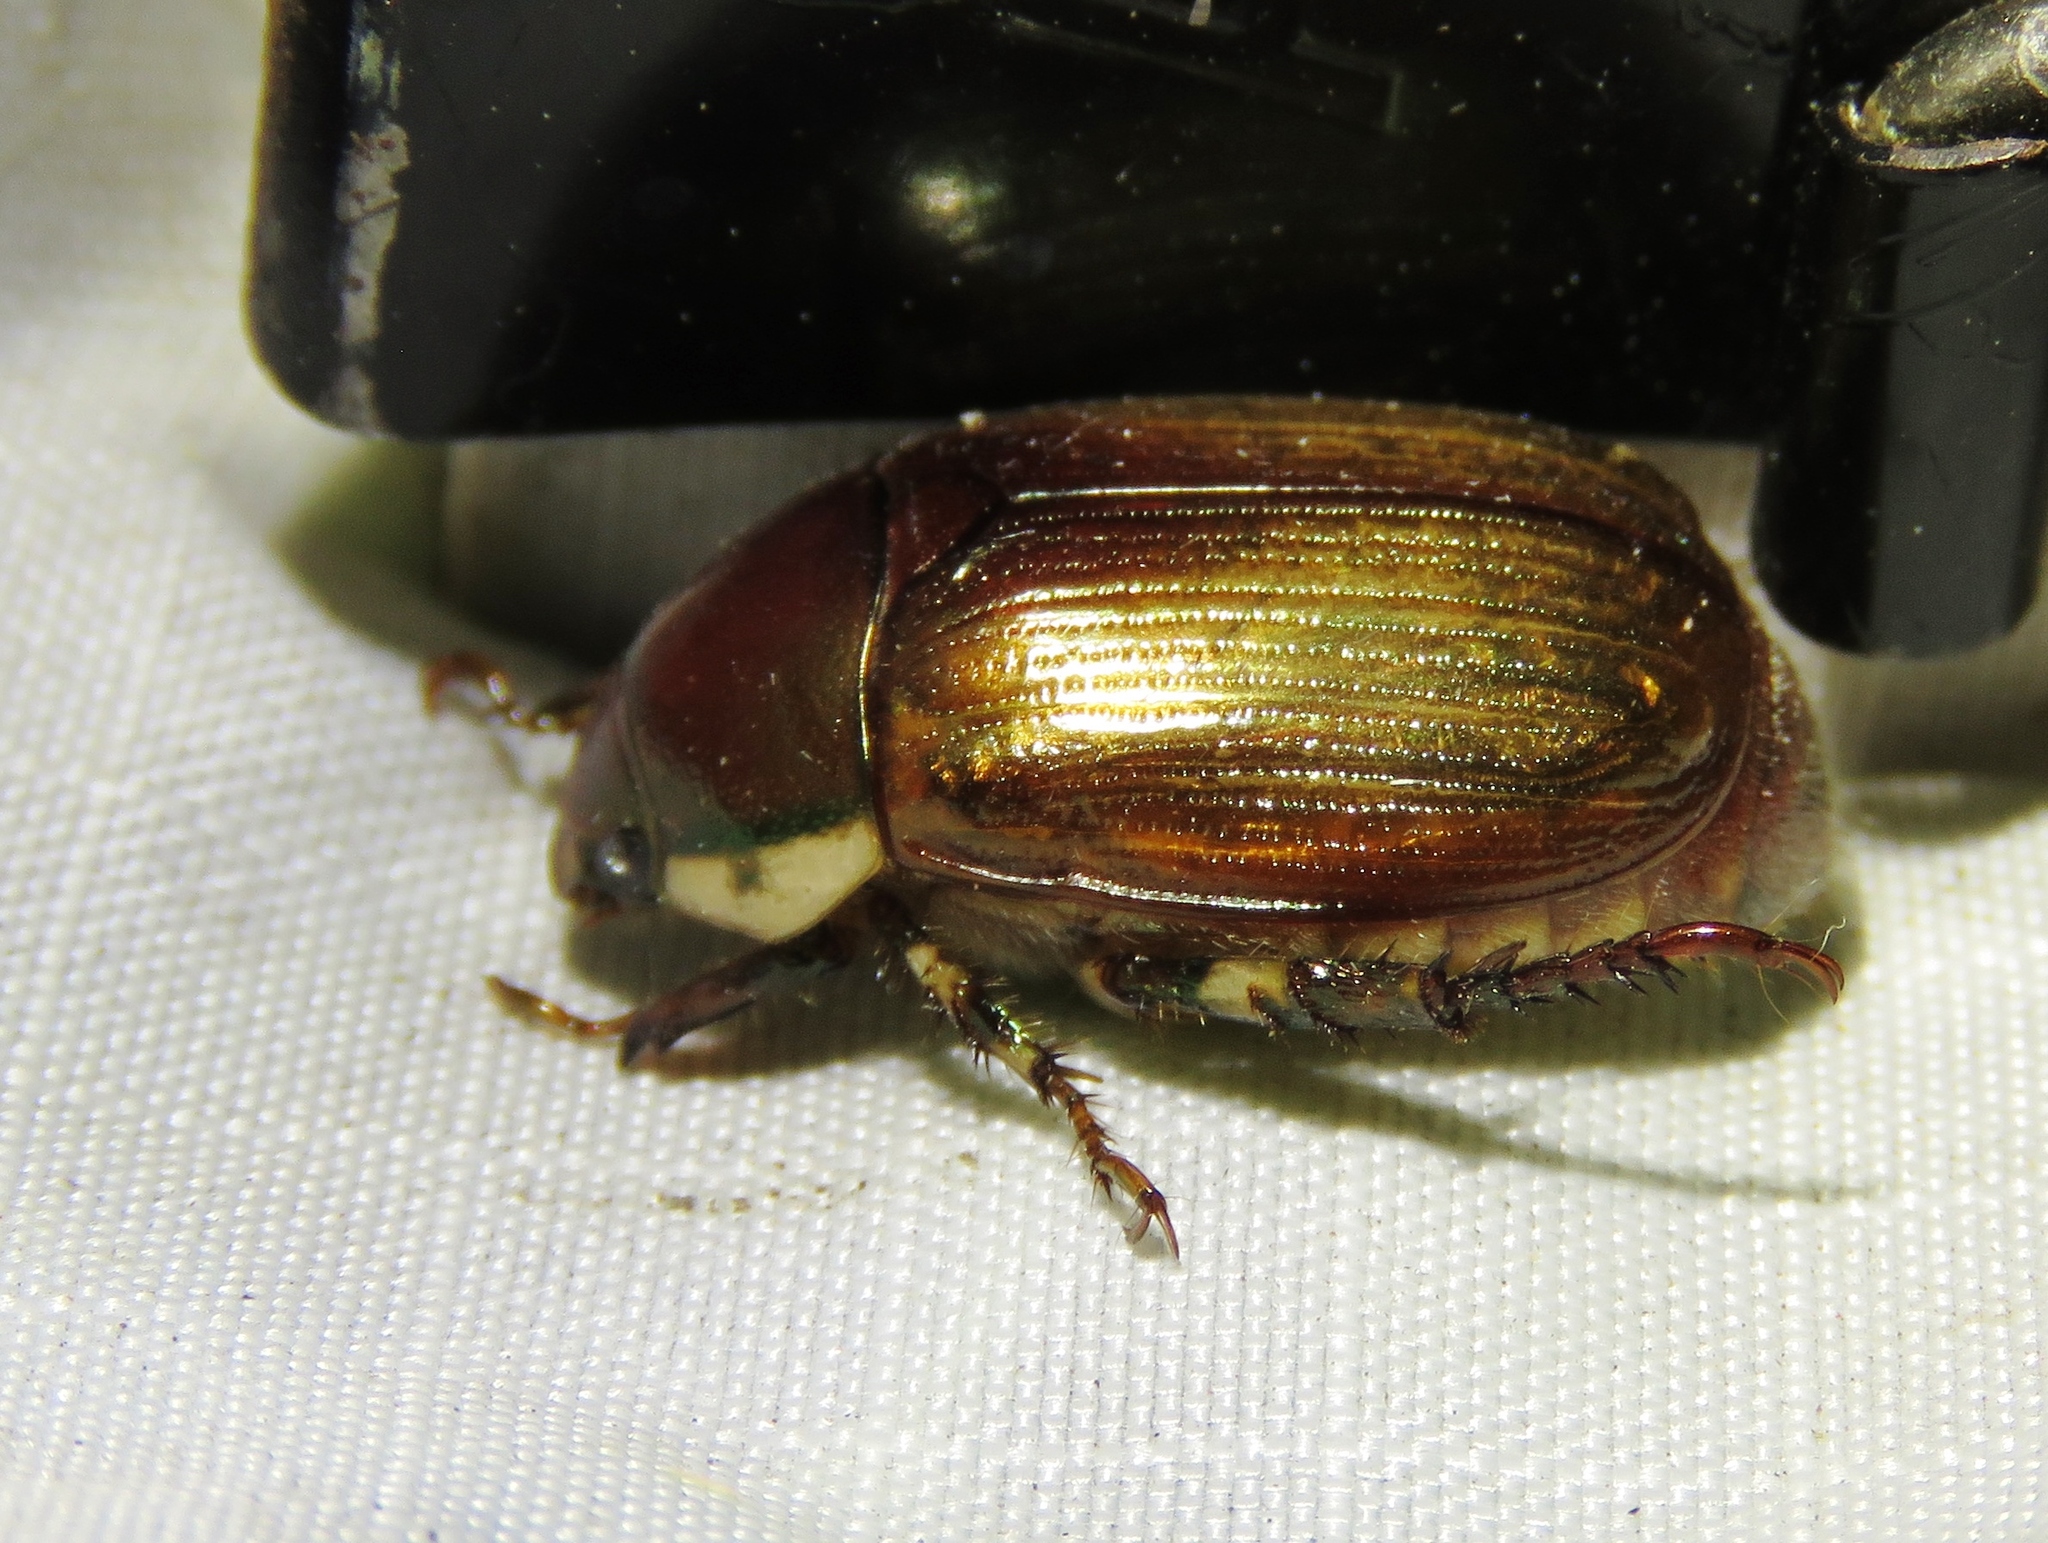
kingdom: Animalia
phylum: Arthropoda
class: Insecta
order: Coleoptera
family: Scarabaeidae
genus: Callistethus
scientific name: Callistethus marginatus
